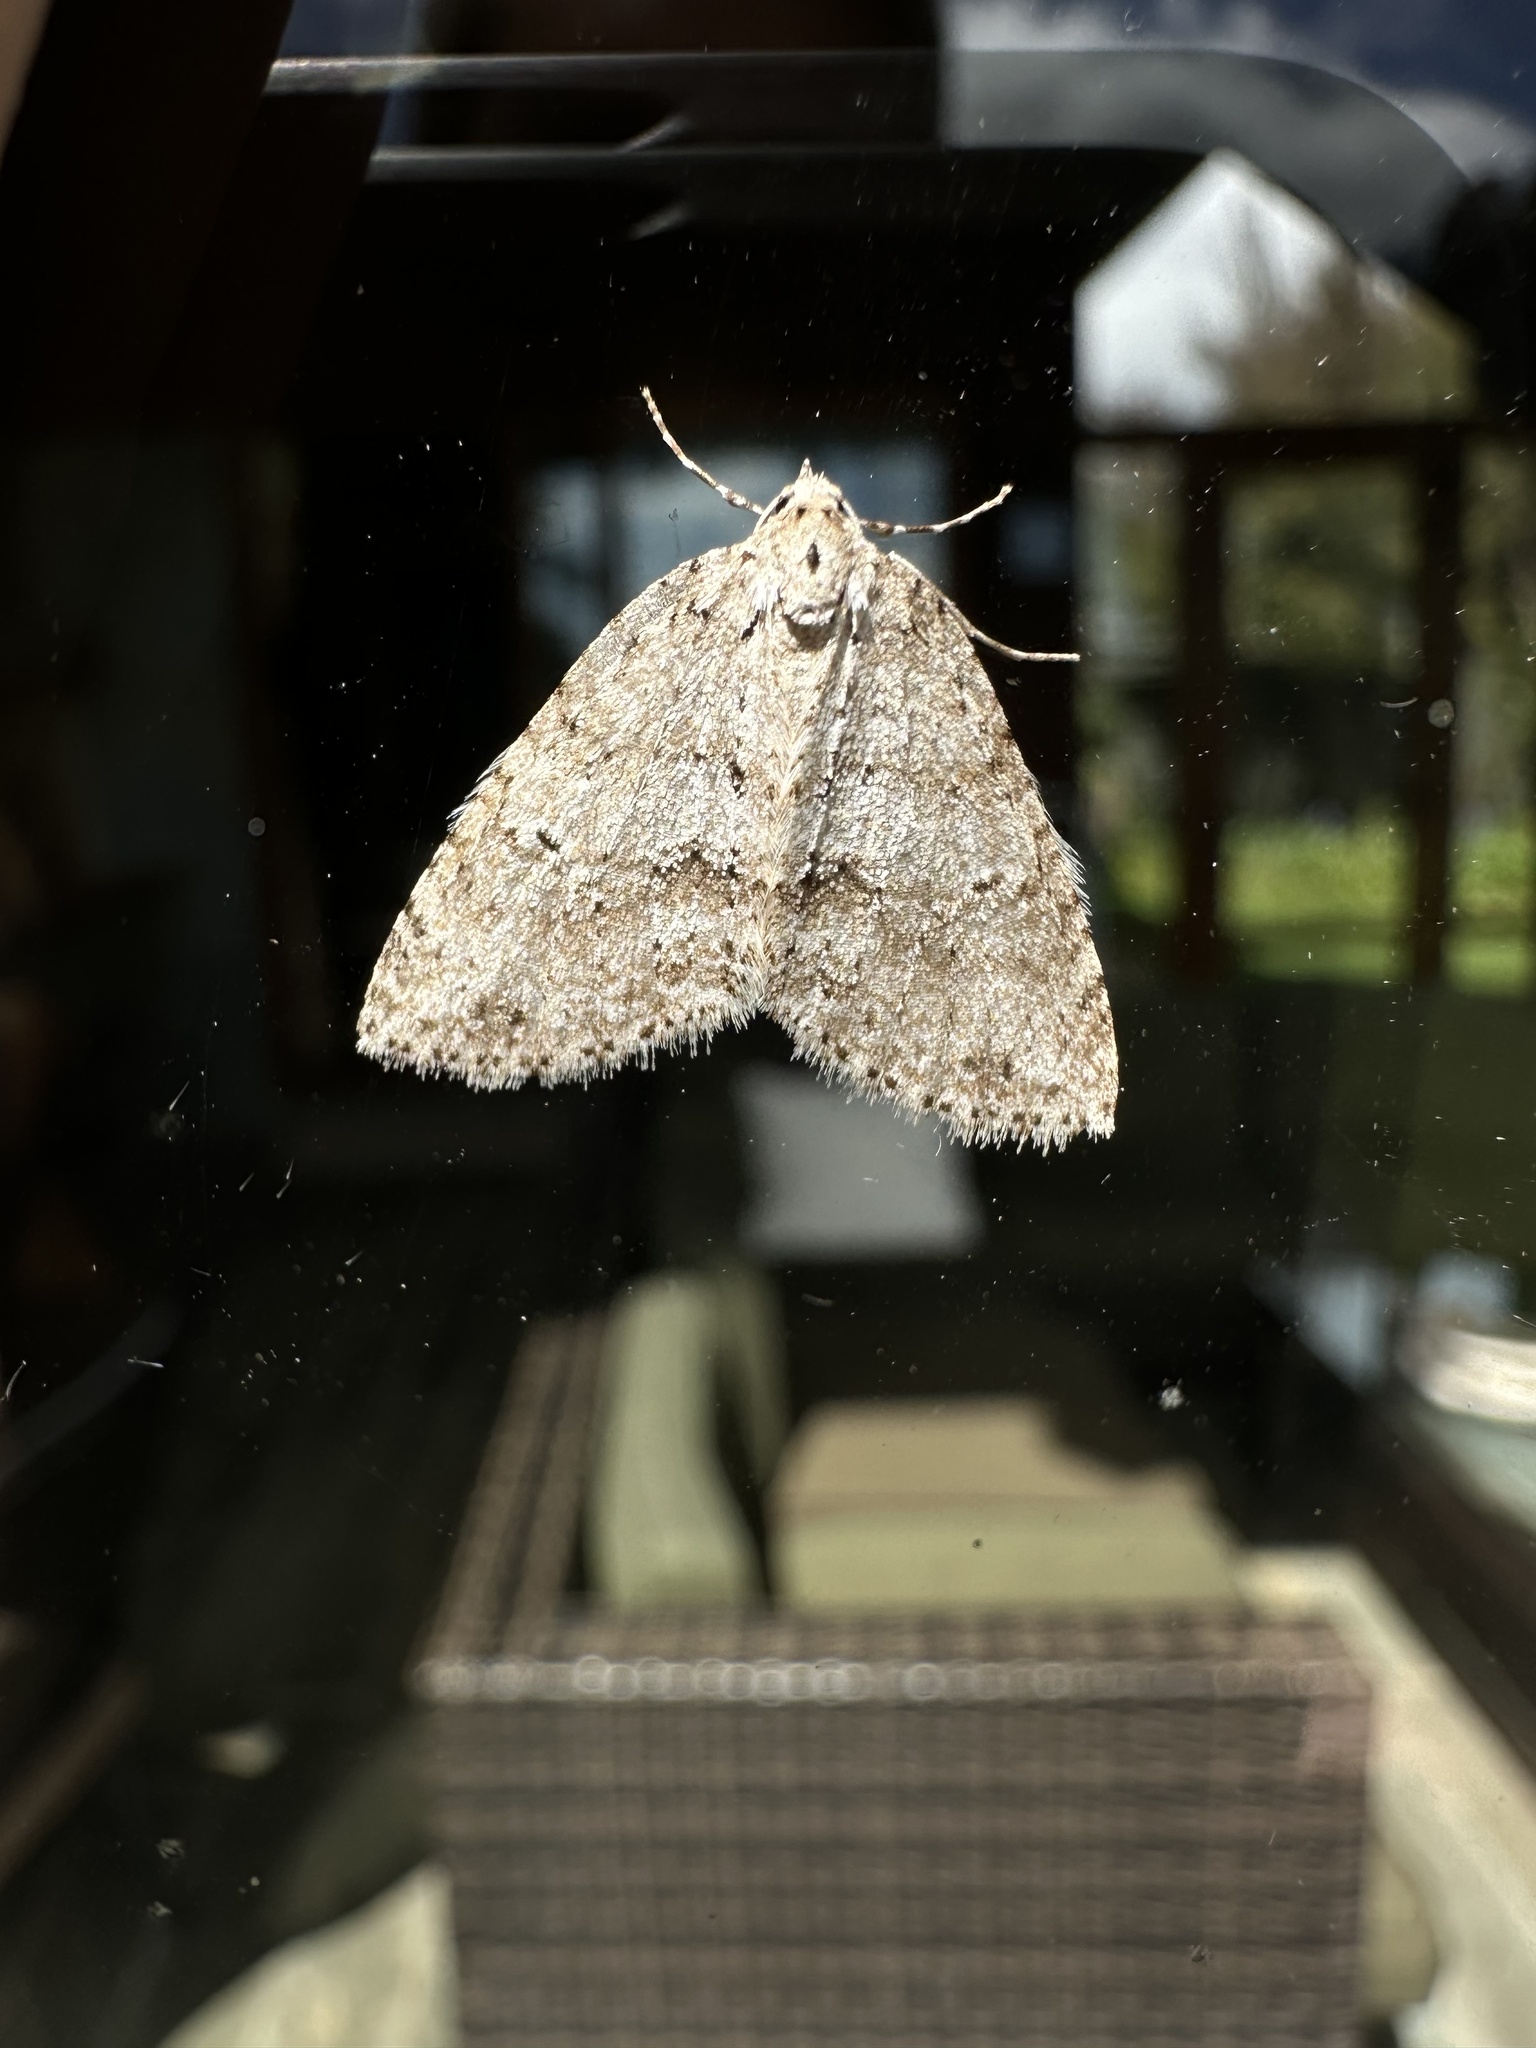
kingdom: Animalia
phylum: Arthropoda
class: Insecta
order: Lepidoptera
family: Geometridae
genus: Hoplosauris
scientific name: Hoplosauris
